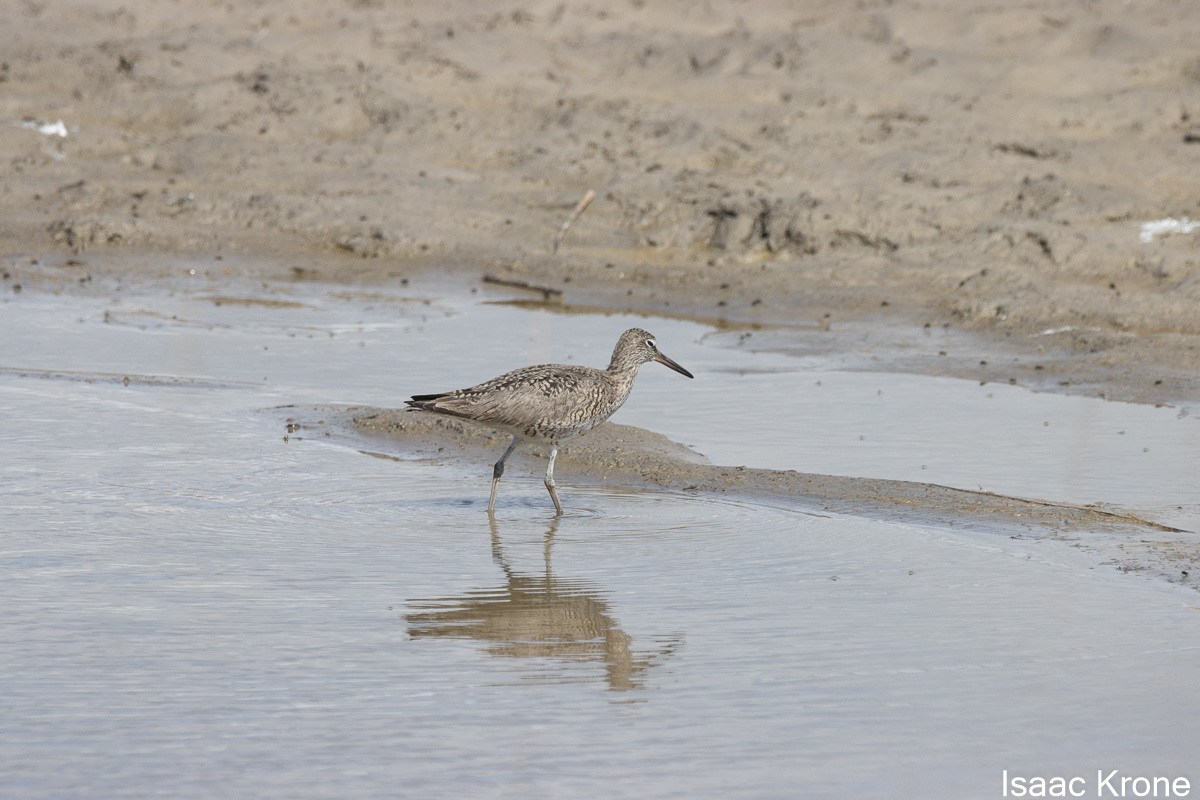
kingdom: Animalia
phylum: Chordata
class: Aves
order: Charadriiformes
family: Scolopacidae
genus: Tringa
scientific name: Tringa semipalmata
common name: Willet
